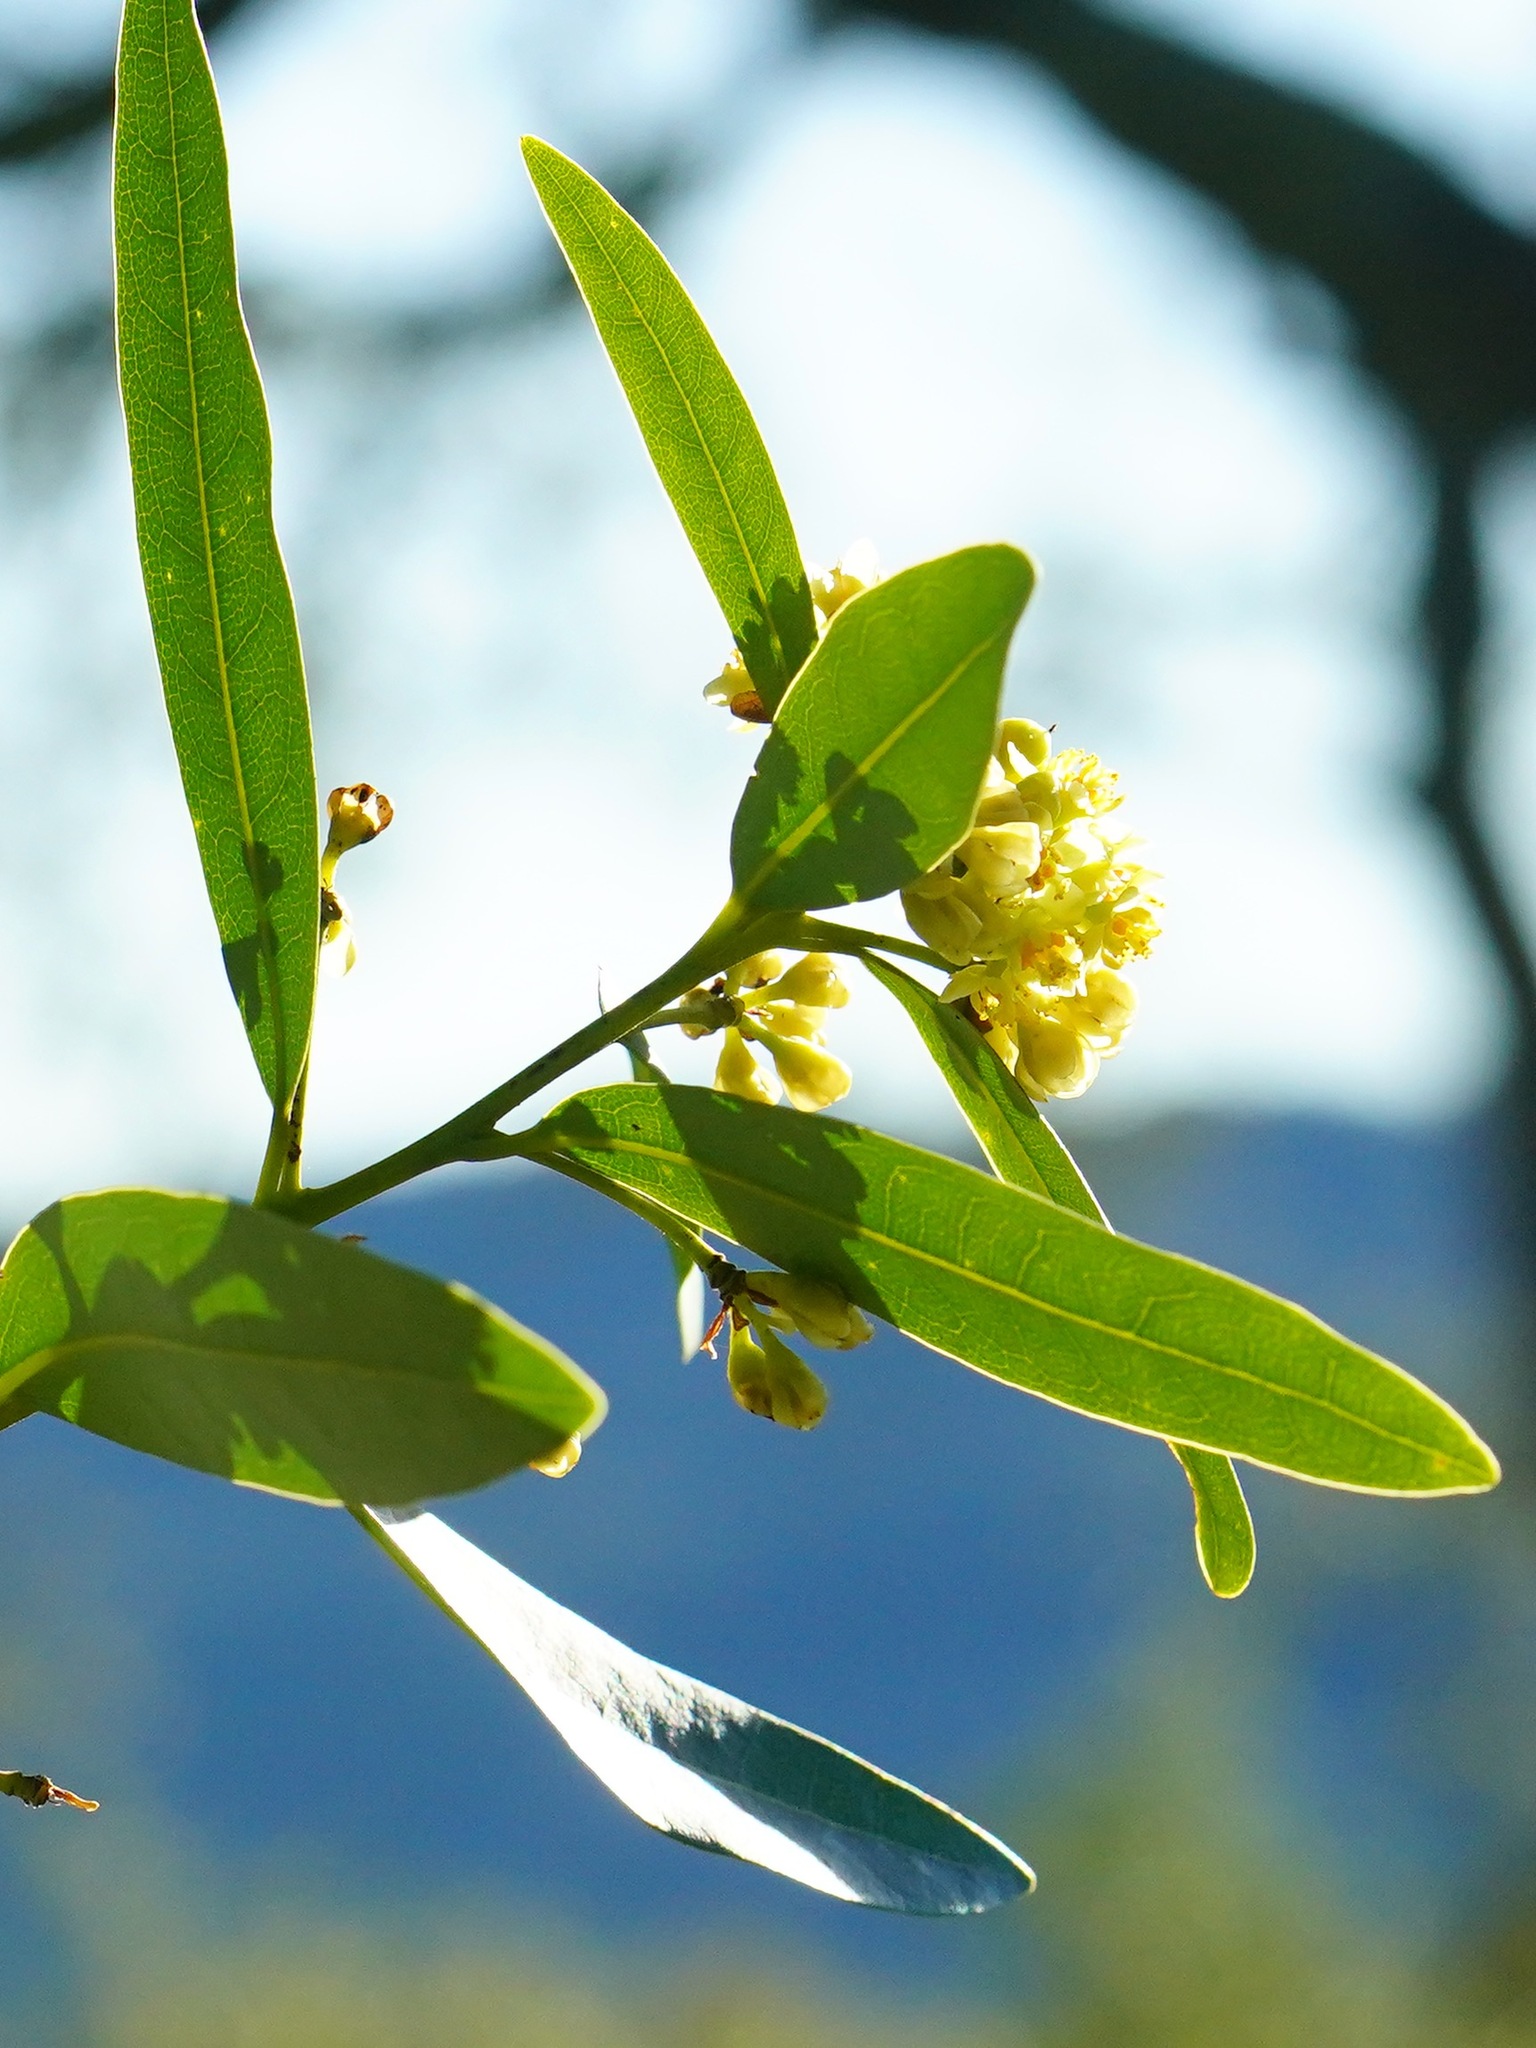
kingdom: Plantae
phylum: Tracheophyta
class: Magnoliopsida
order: Laurales
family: Lauraceae
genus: Umbellularia
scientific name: Umbellularia californica
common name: California bay
